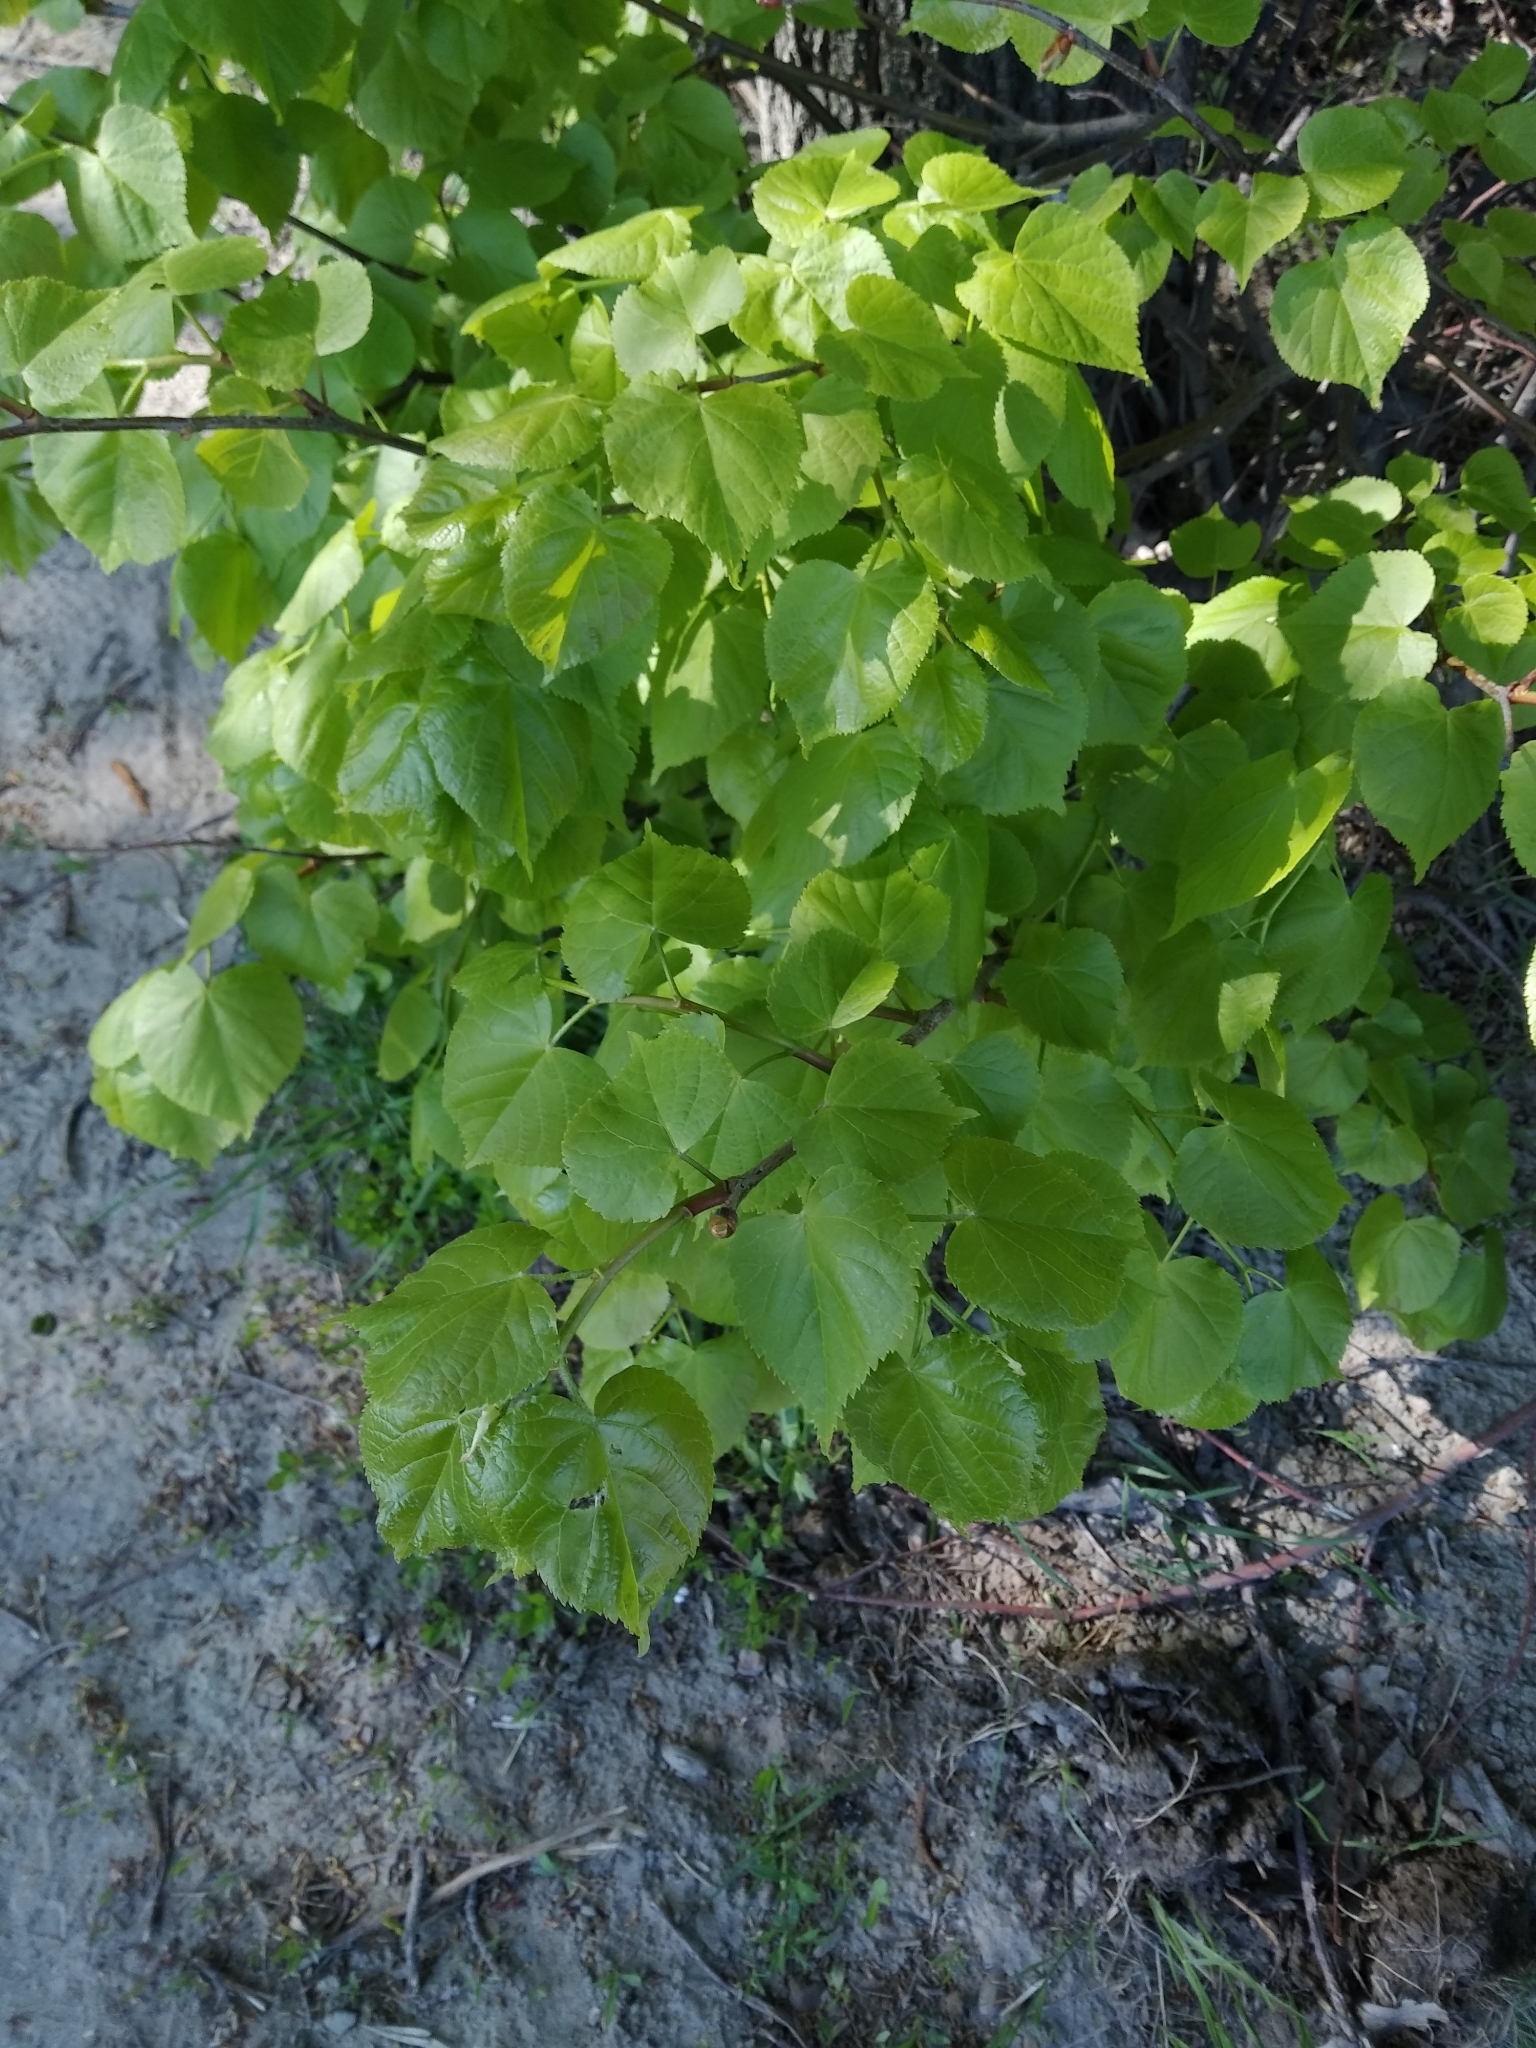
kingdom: Plantae
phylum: Tracheophyta
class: Magnoliopsida
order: Malvales
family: Malvaceae
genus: Tilia
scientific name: Tilia cordata
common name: Small-leaved lime
